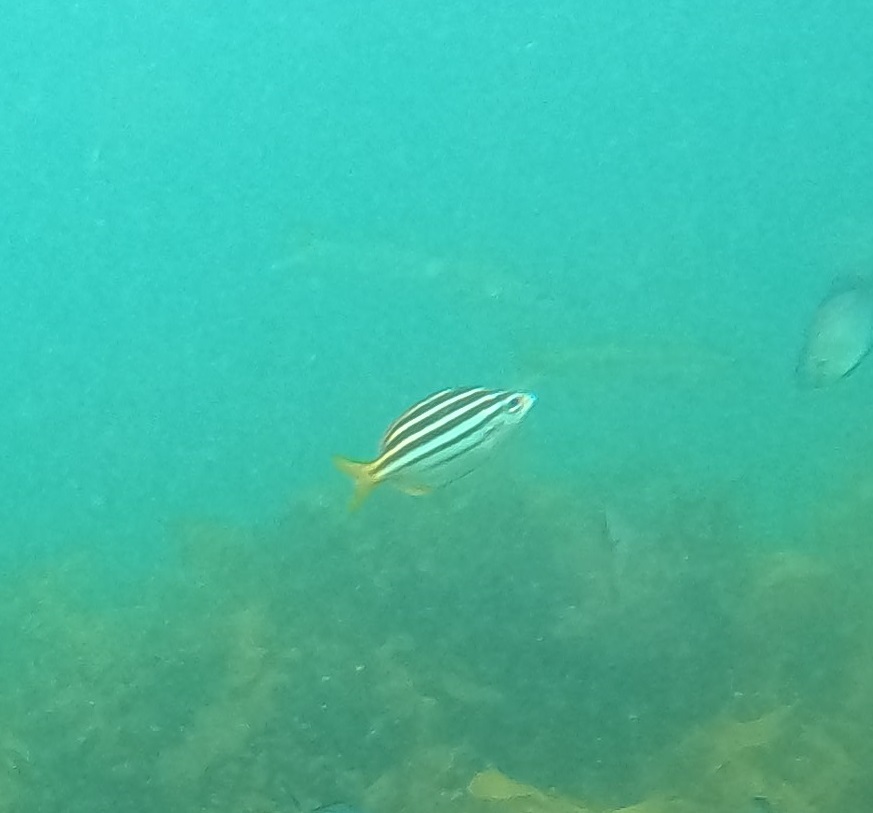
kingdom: Animalia
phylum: Chordata
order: Perciformes
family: Kyphosidae
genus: Atypichthys
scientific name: Atypichthys strigatus
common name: Australian mado
